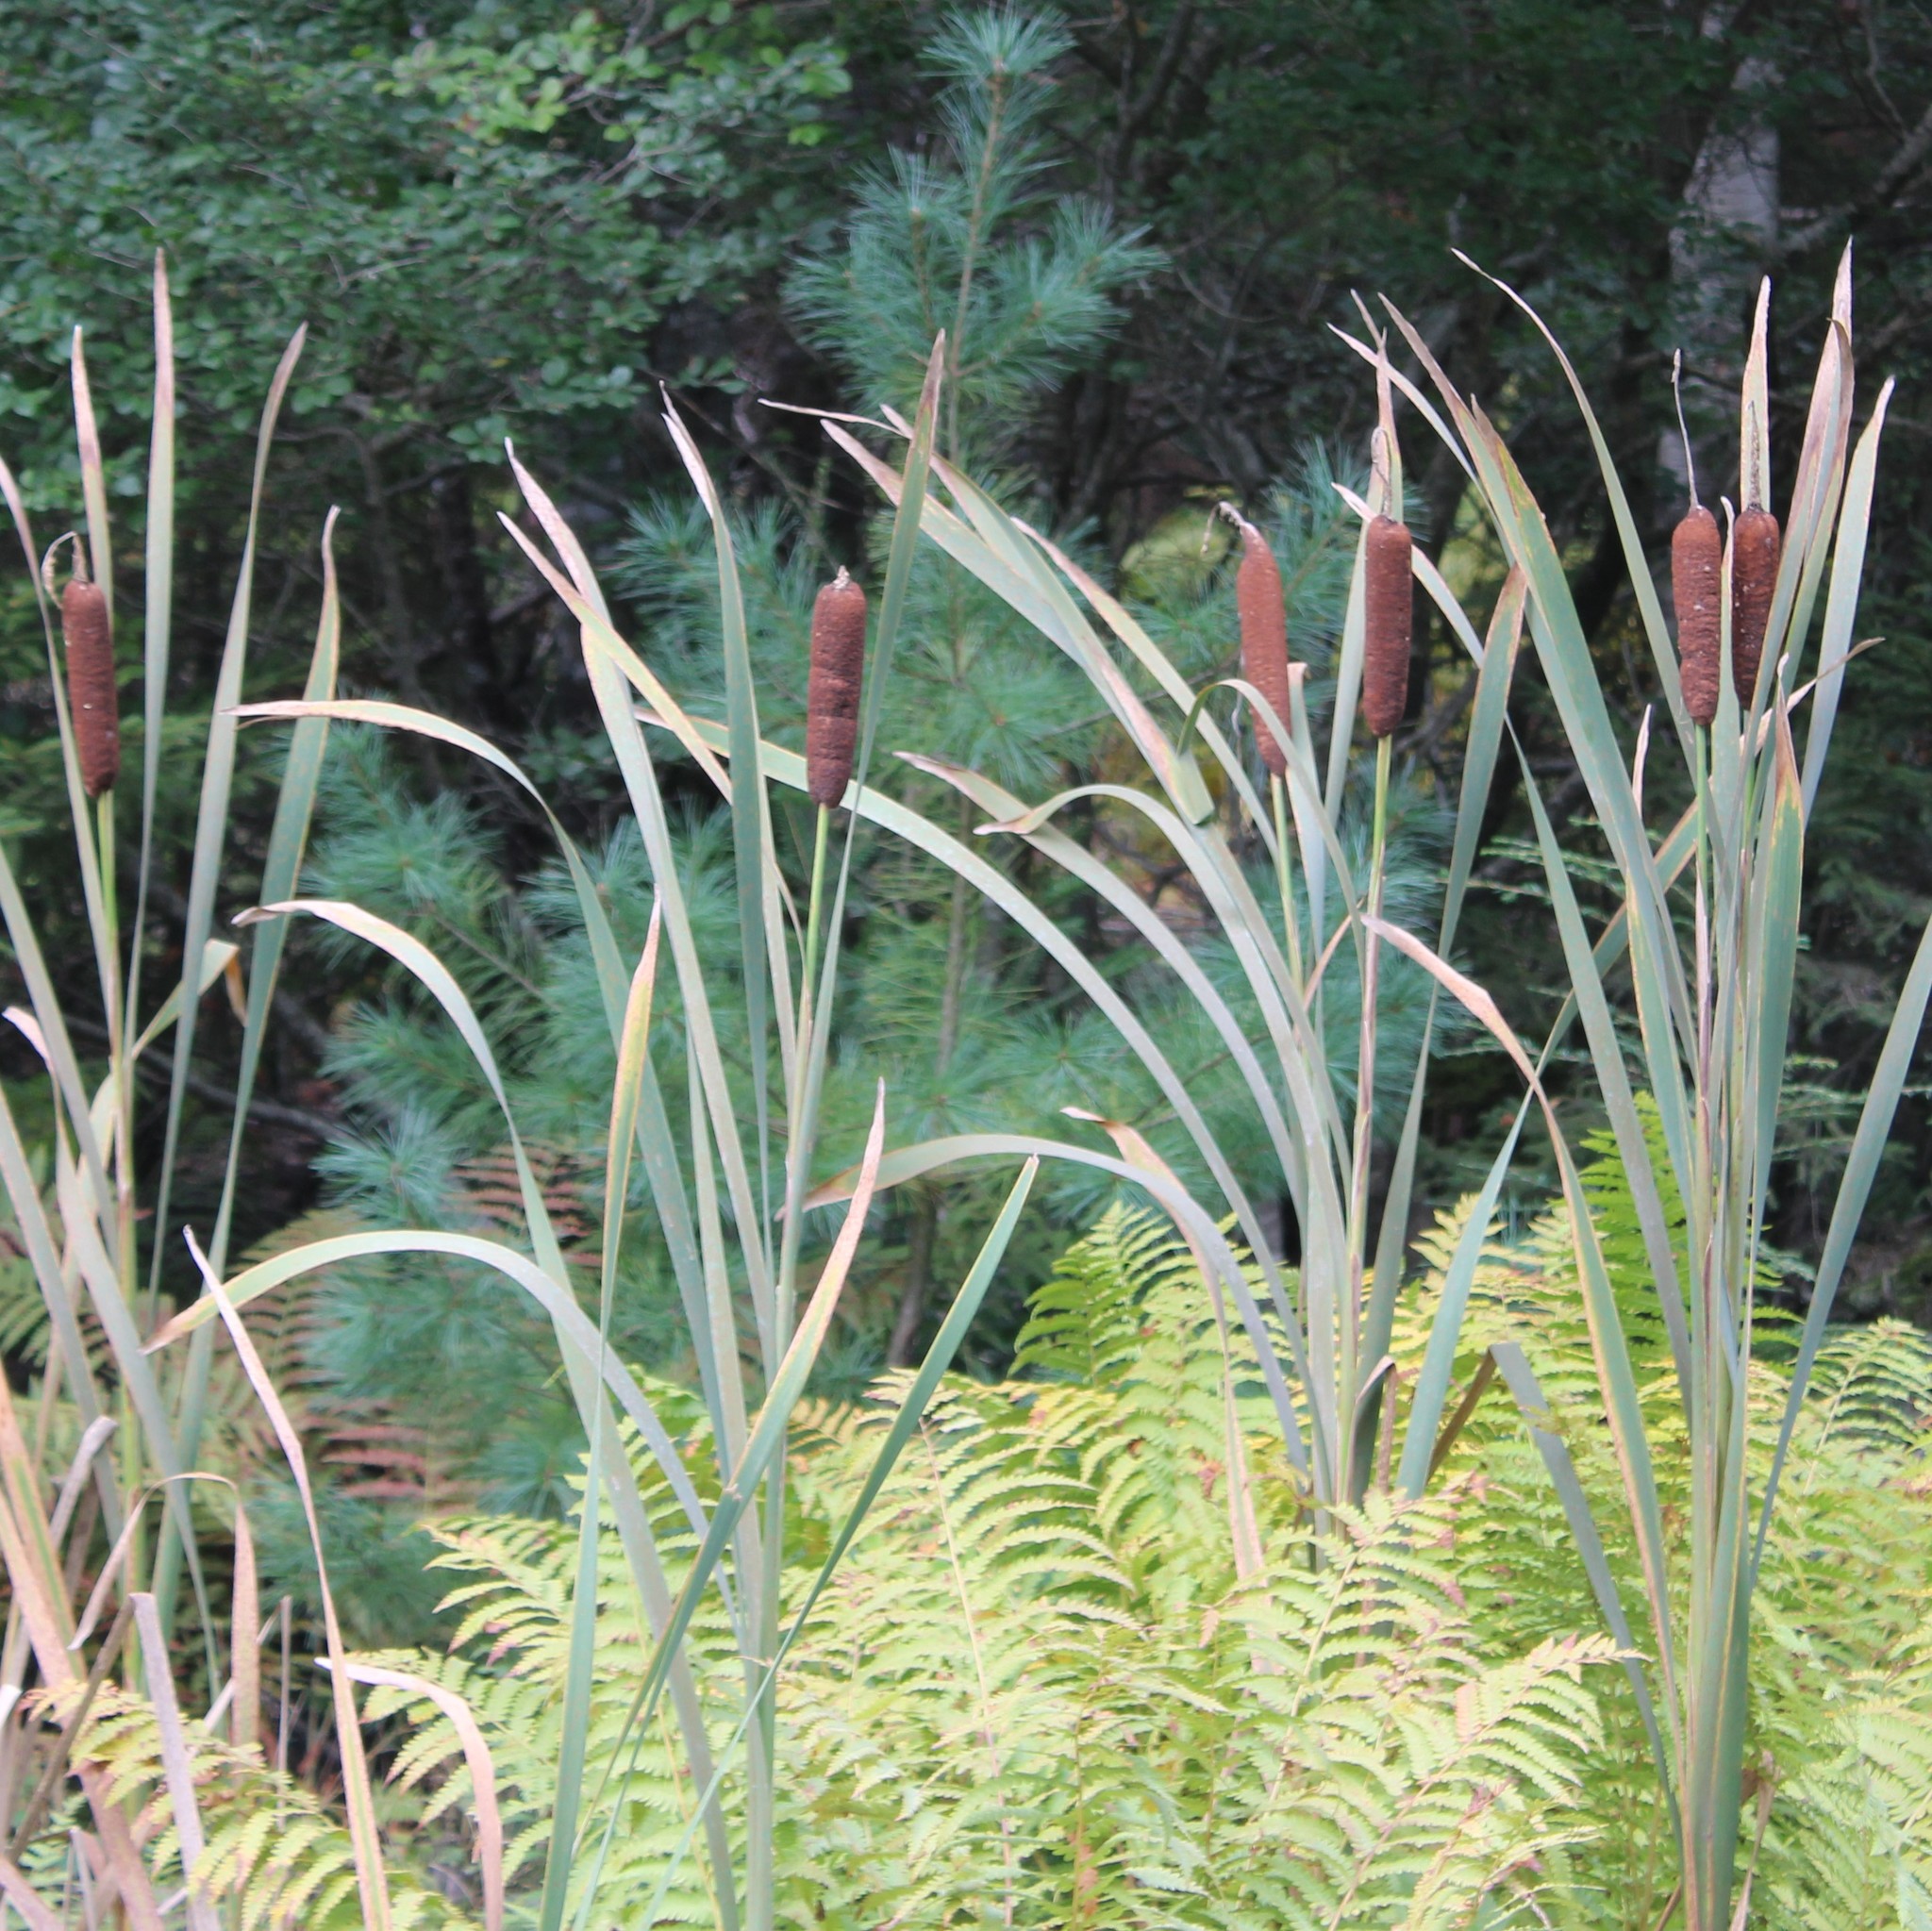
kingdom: Plantae
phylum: Tracheophyta
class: Liliopsida
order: Poales
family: Typhaceae
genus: Typha
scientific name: Typha latifolia
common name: Broadleaf cattail
